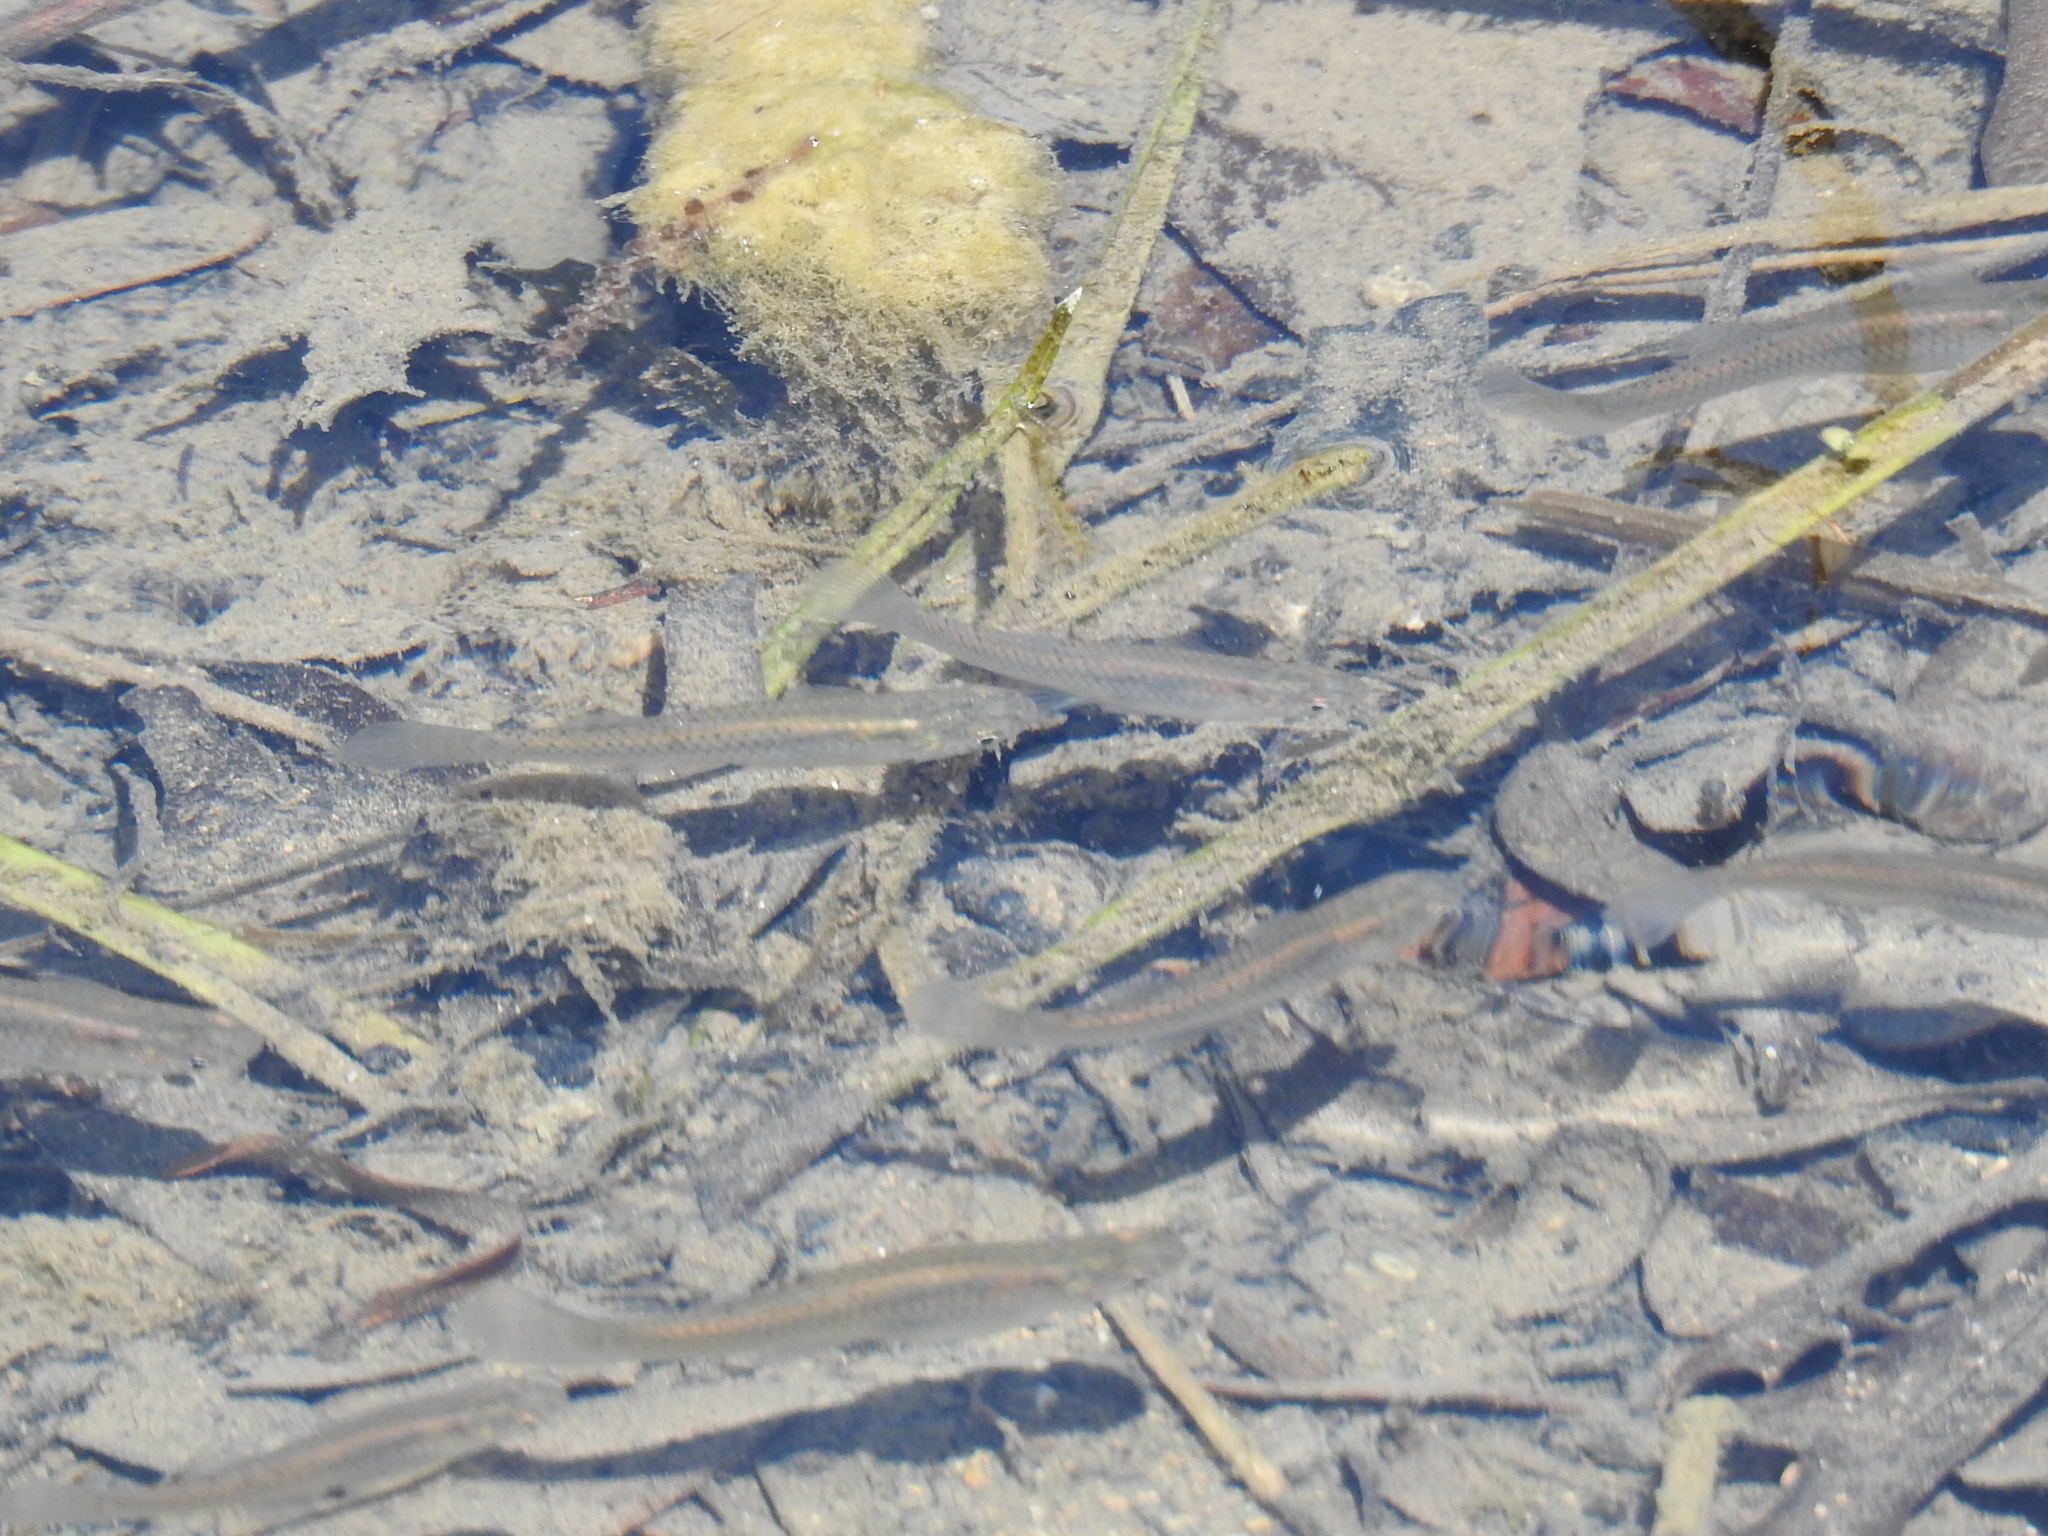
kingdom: Animalia
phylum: Chordata
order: Cyprinodontiformes
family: Poeciliidae
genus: Gambusia
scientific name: Gambusia affinis
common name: Mosquitofish
